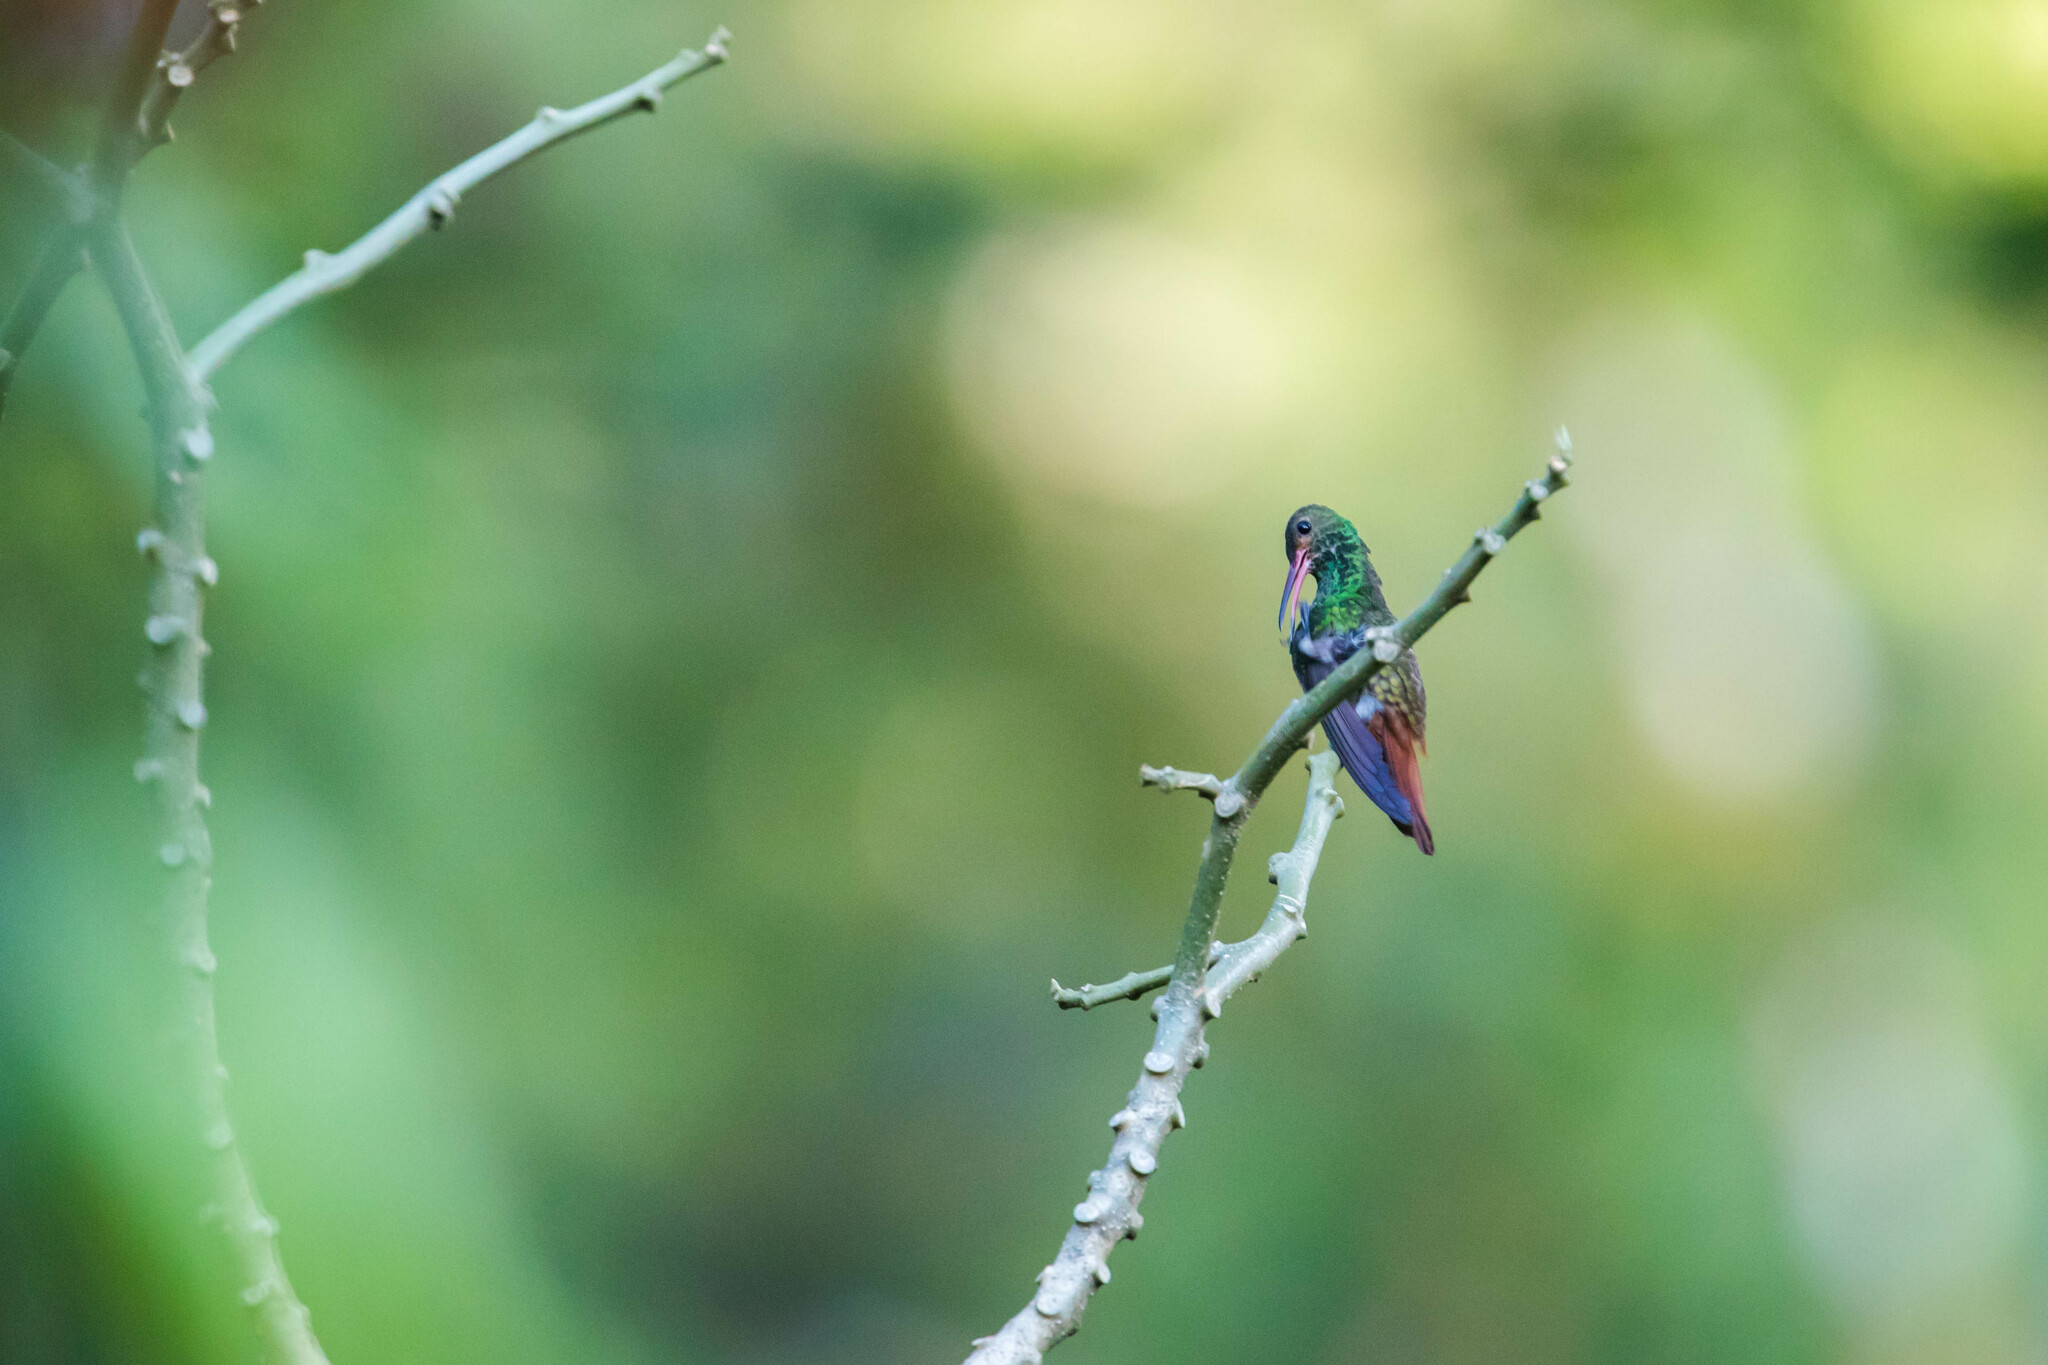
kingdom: Animalia
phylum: Chordata
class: Aves
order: Apodiformes
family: Trochilidae
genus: Amazilia
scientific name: Amazilia tzacatl
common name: Rufous-tailed hummingbird
